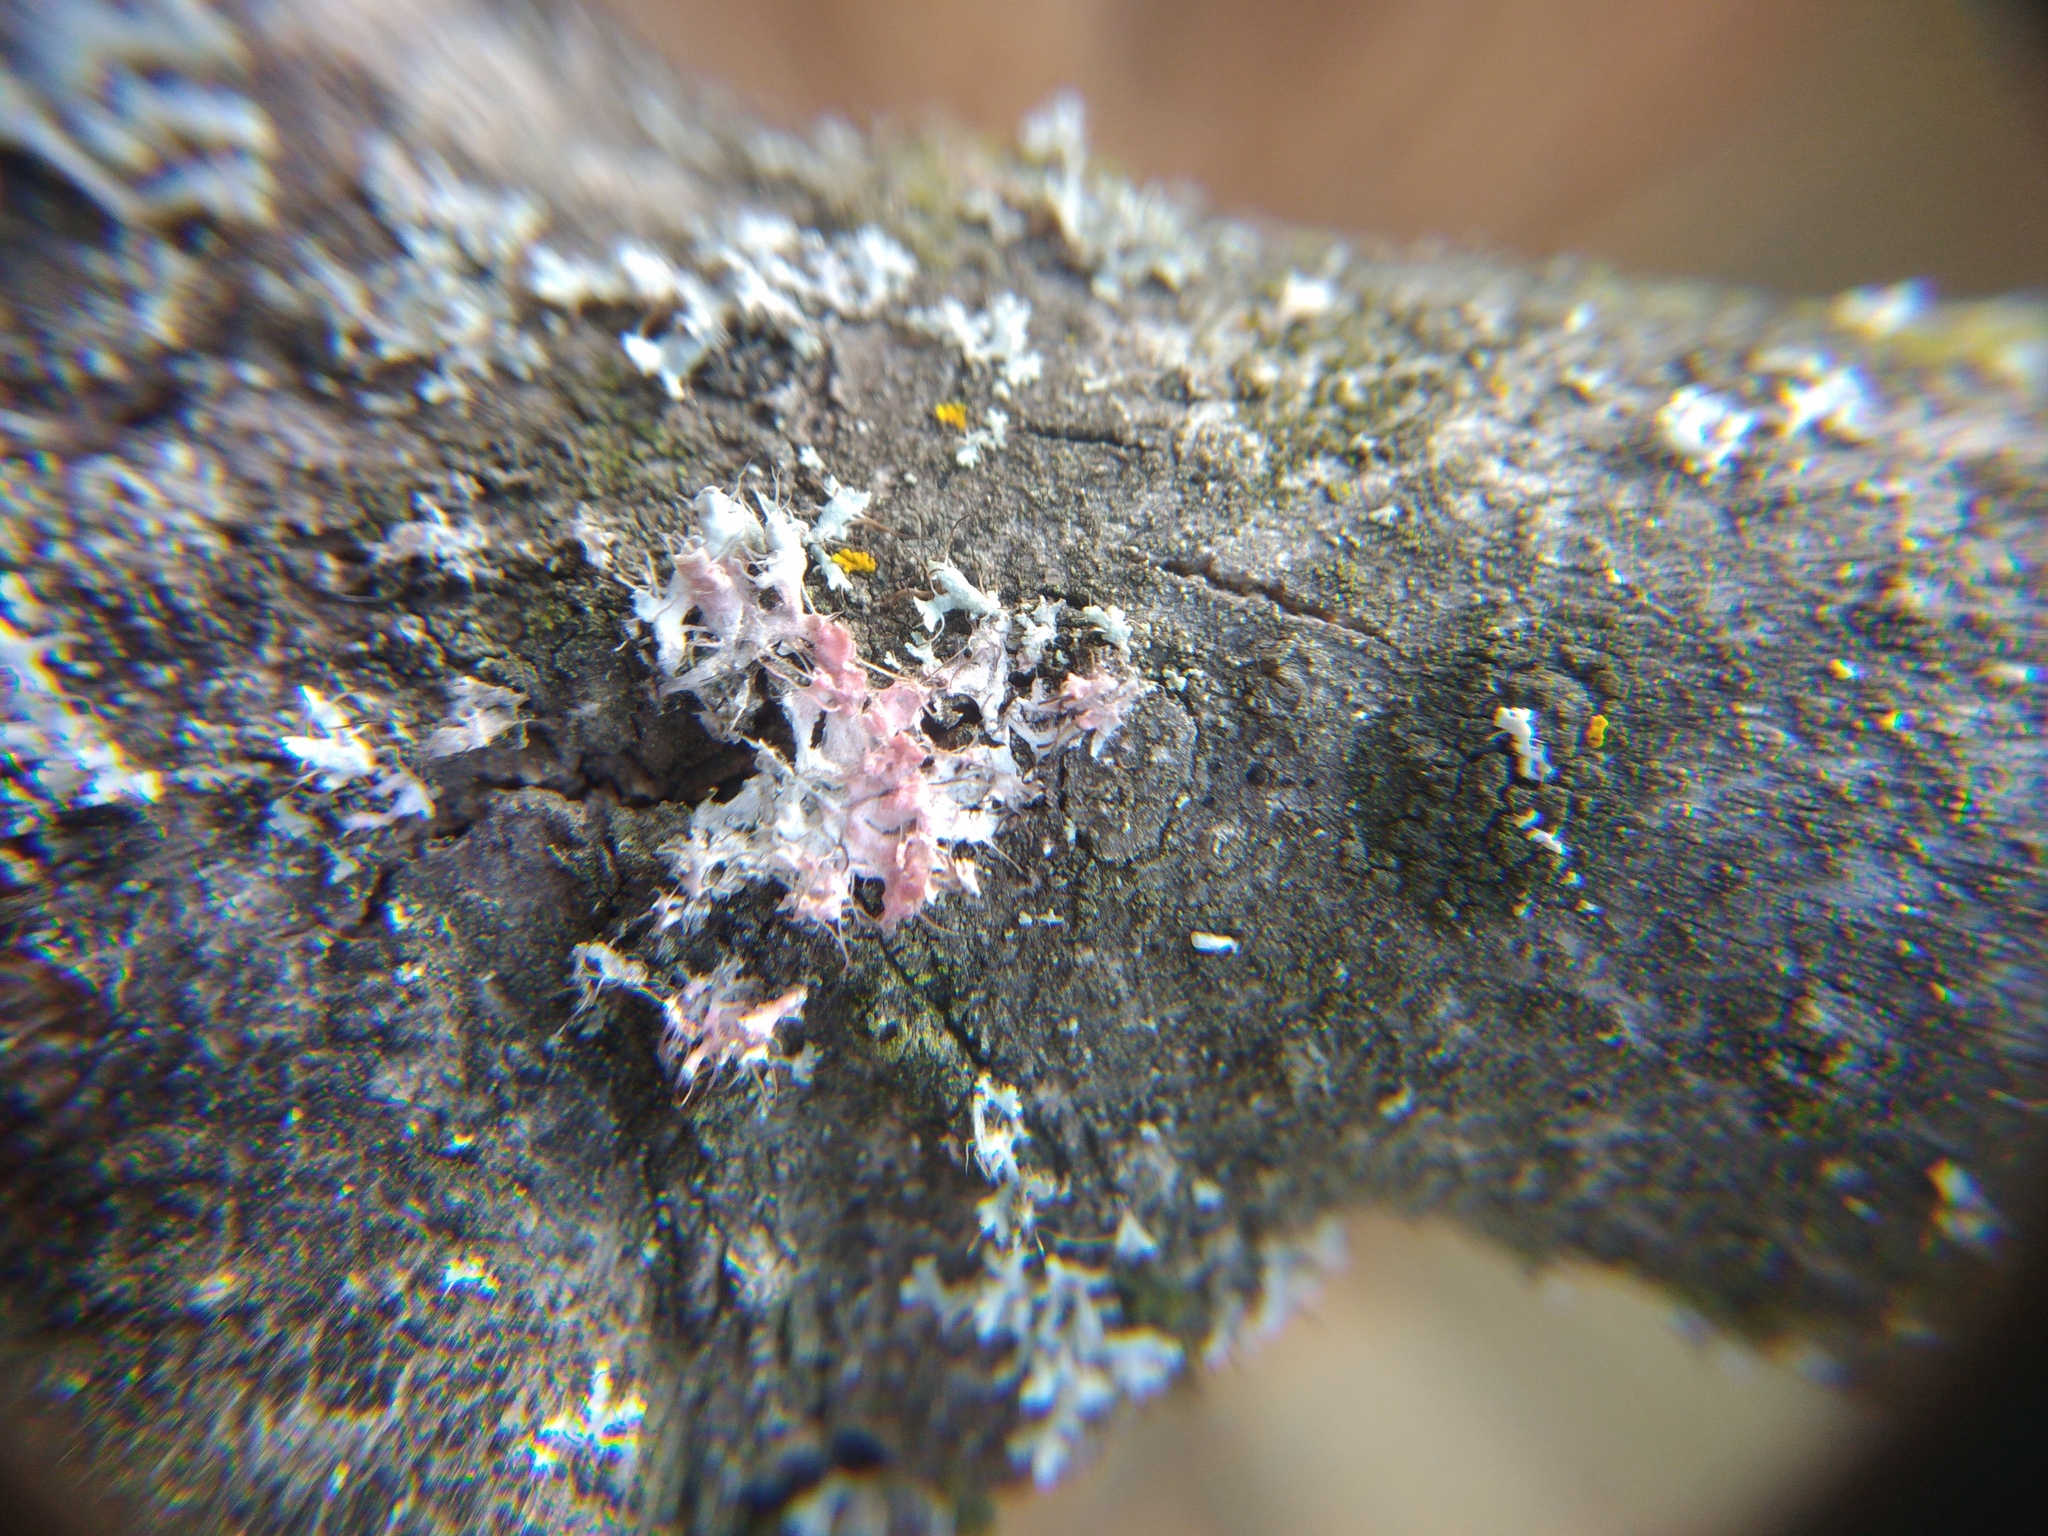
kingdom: Fungi
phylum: Basidiomycota
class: Agaricomycetes
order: Corticiales
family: Corticiaceae
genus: Laetisaria
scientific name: Laetisaria lichenicola
